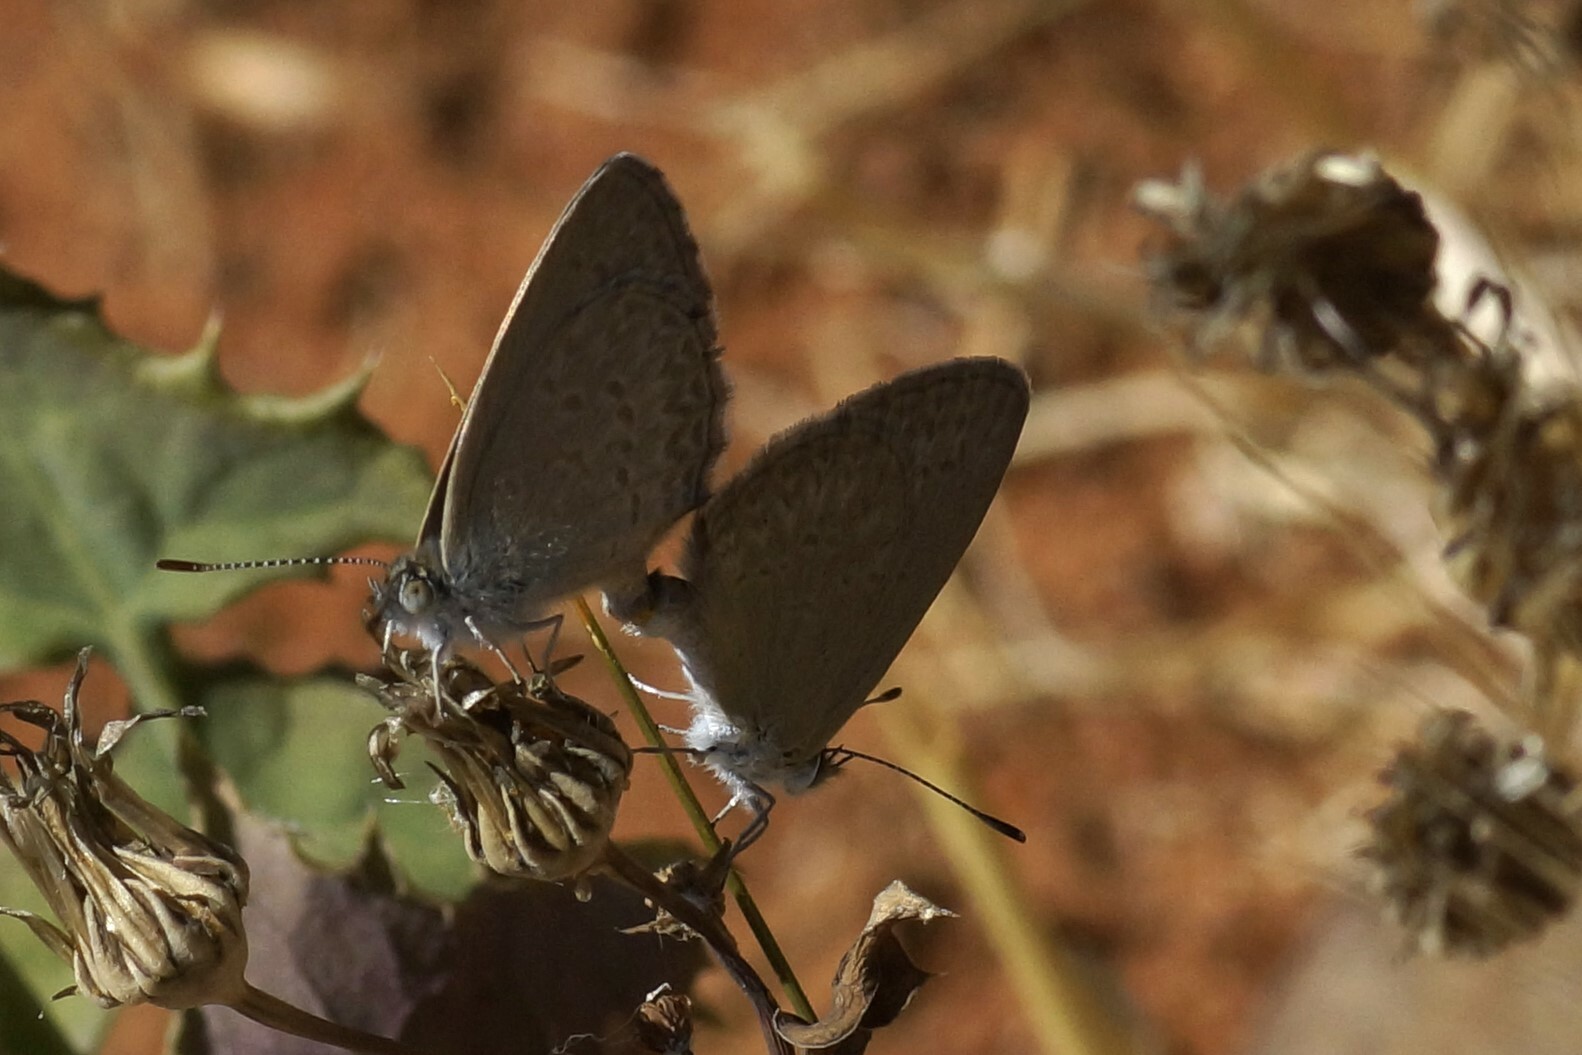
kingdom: Animalia
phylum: Arthropoda
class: Insecta
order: Lepidoptera
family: Lycaenidae
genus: Zizina
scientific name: Zizina otis
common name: Lesser grass blue
